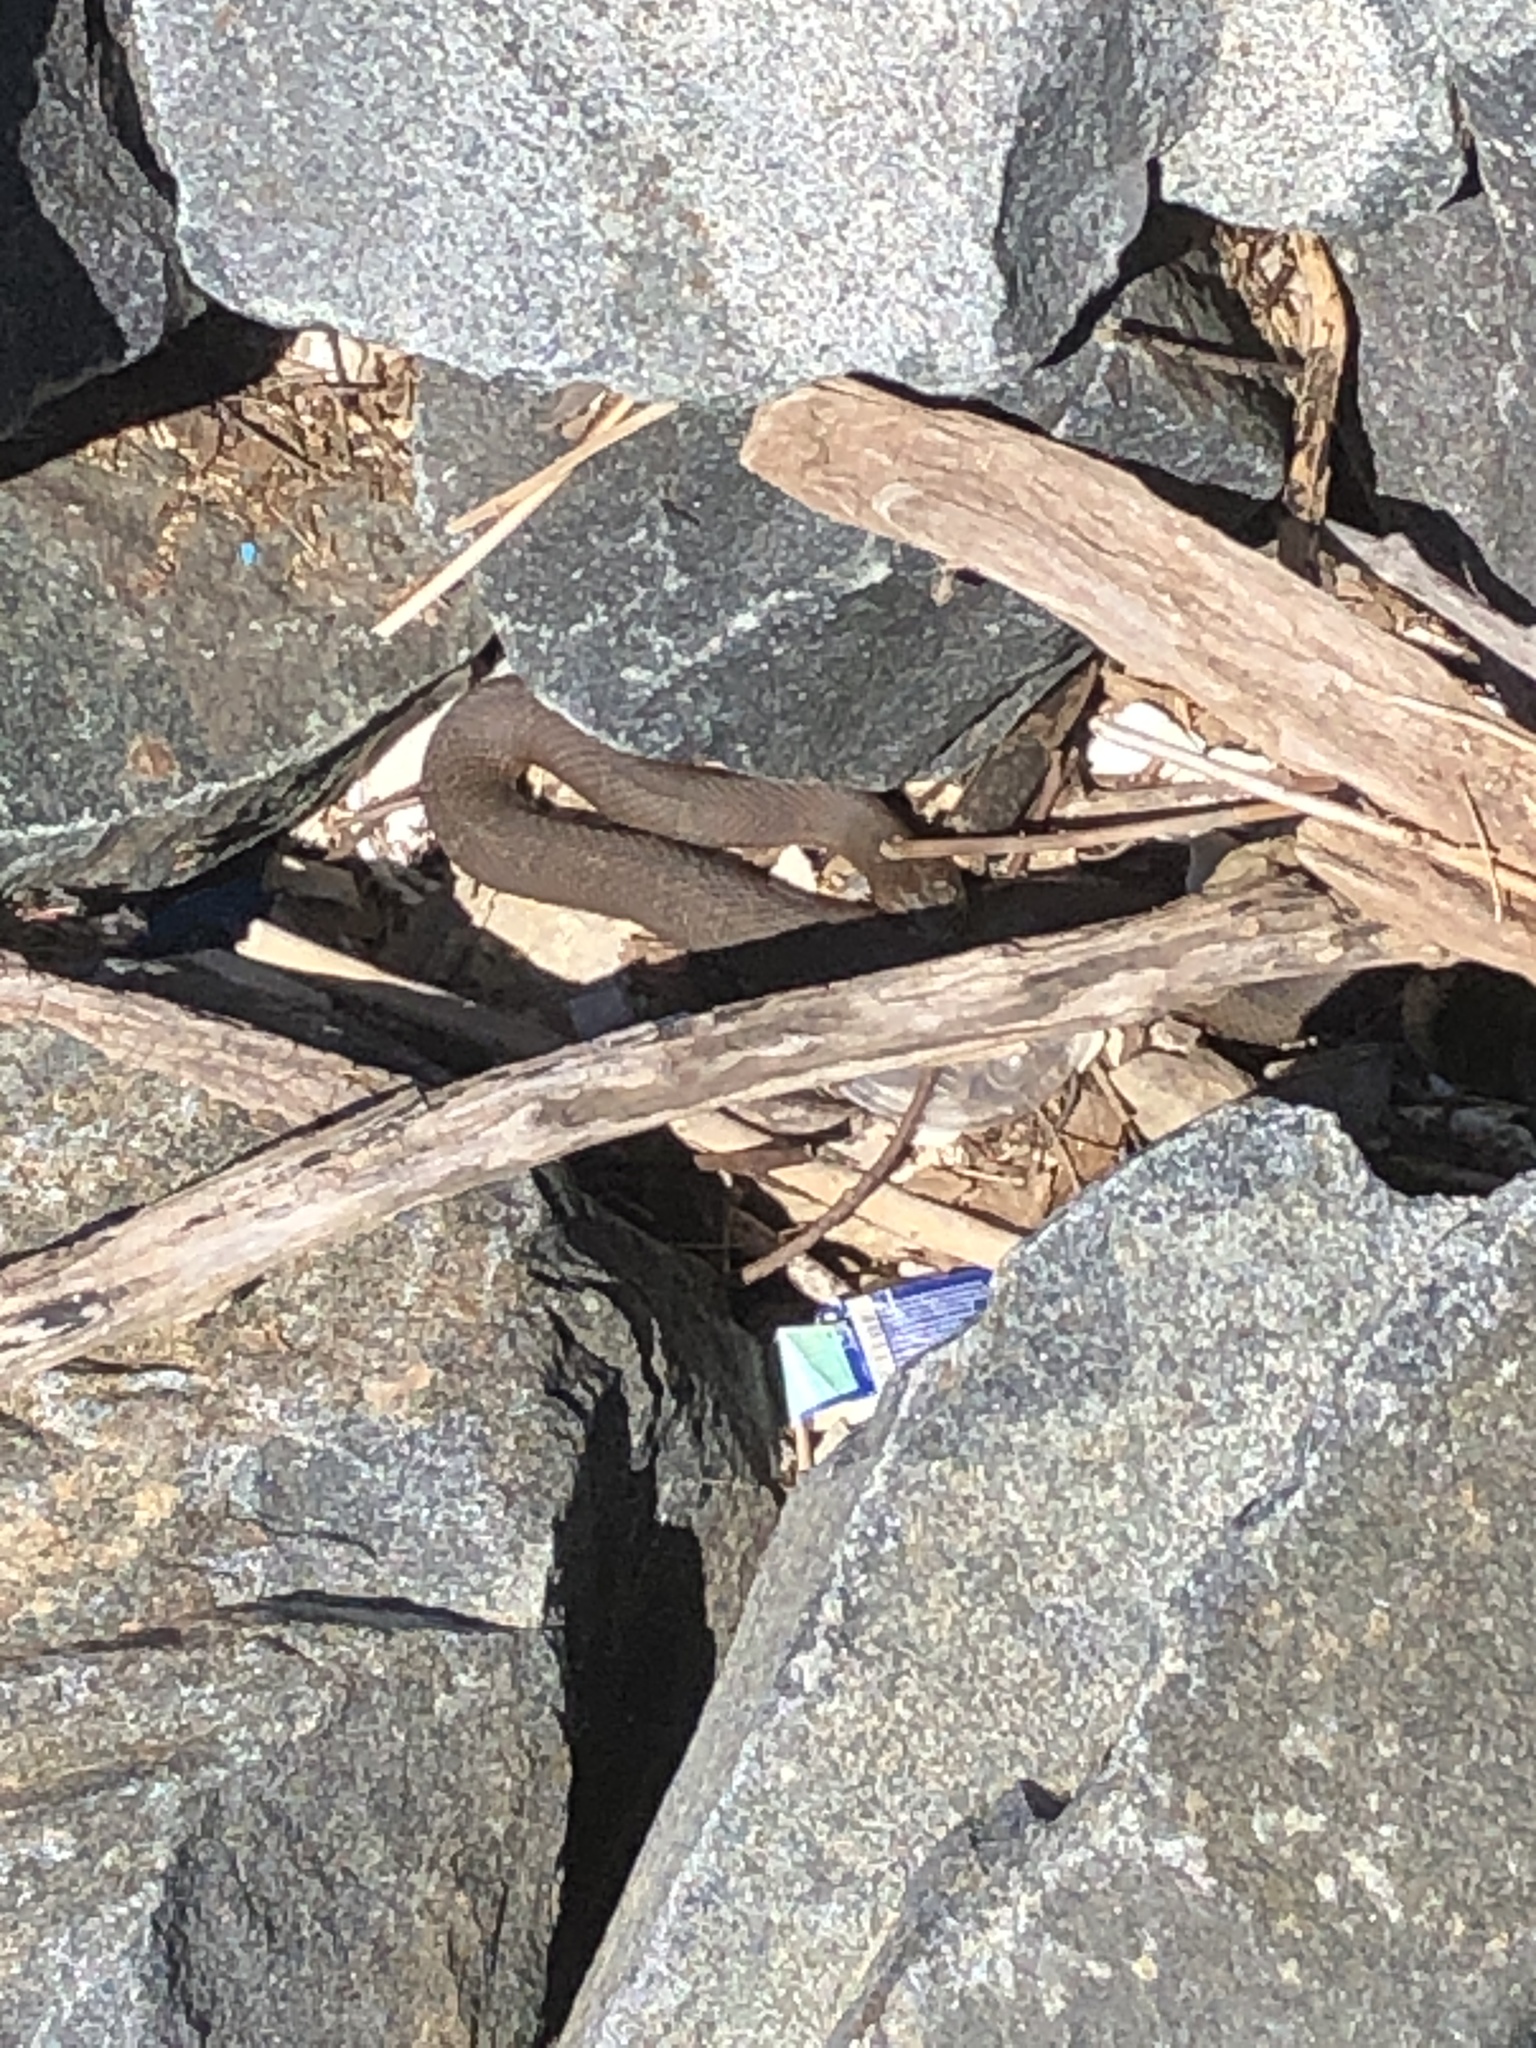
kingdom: Animalia
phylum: Chordata
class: Squamata
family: Colubridae
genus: Nerodia
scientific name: Nerodia sipedon
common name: Northern water snake
